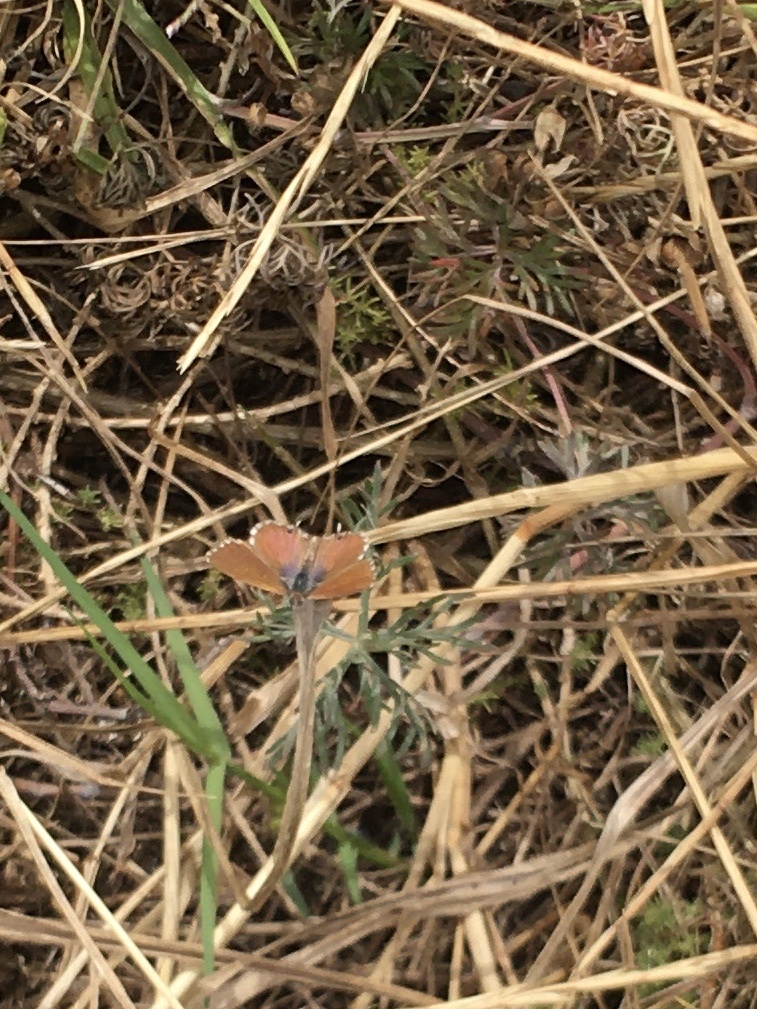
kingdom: Animalia
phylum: Arthropoda
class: Insecta
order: Lepidoptera
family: Lycaenidae
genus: Cacyreus
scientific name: Cacyreus fracta
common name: Water bronze
